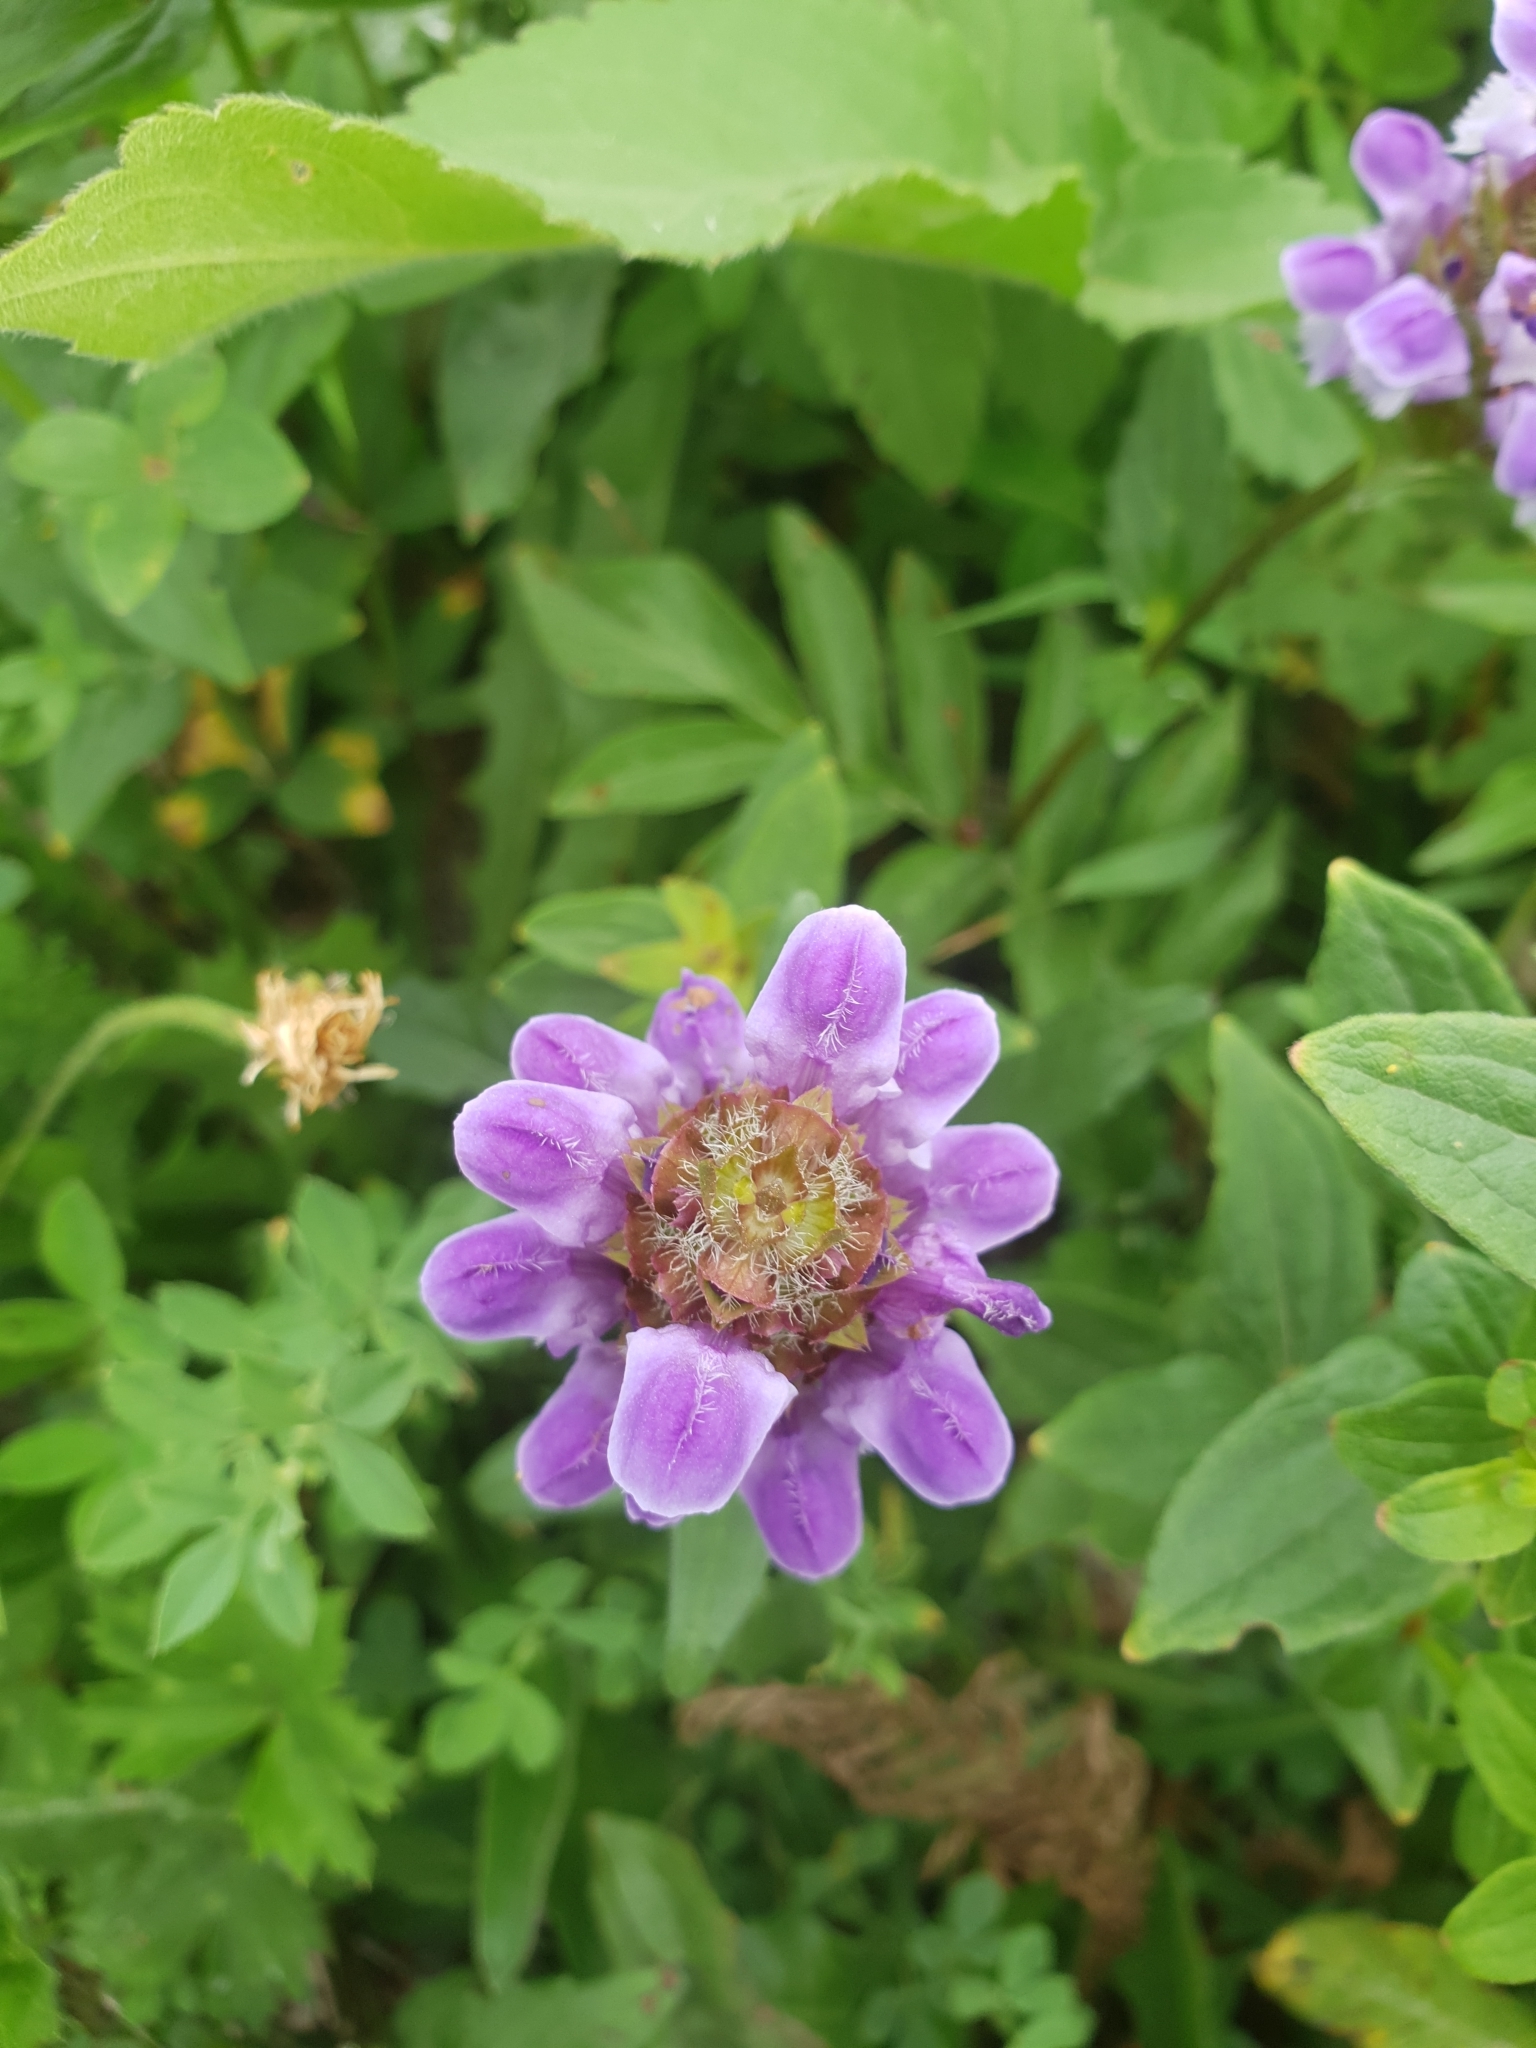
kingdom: Plantae
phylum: Tracheophyta
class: Magnoliopsida
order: Lamiales
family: Lamiaceae
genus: Prunella
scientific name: Prunella grandiflora
